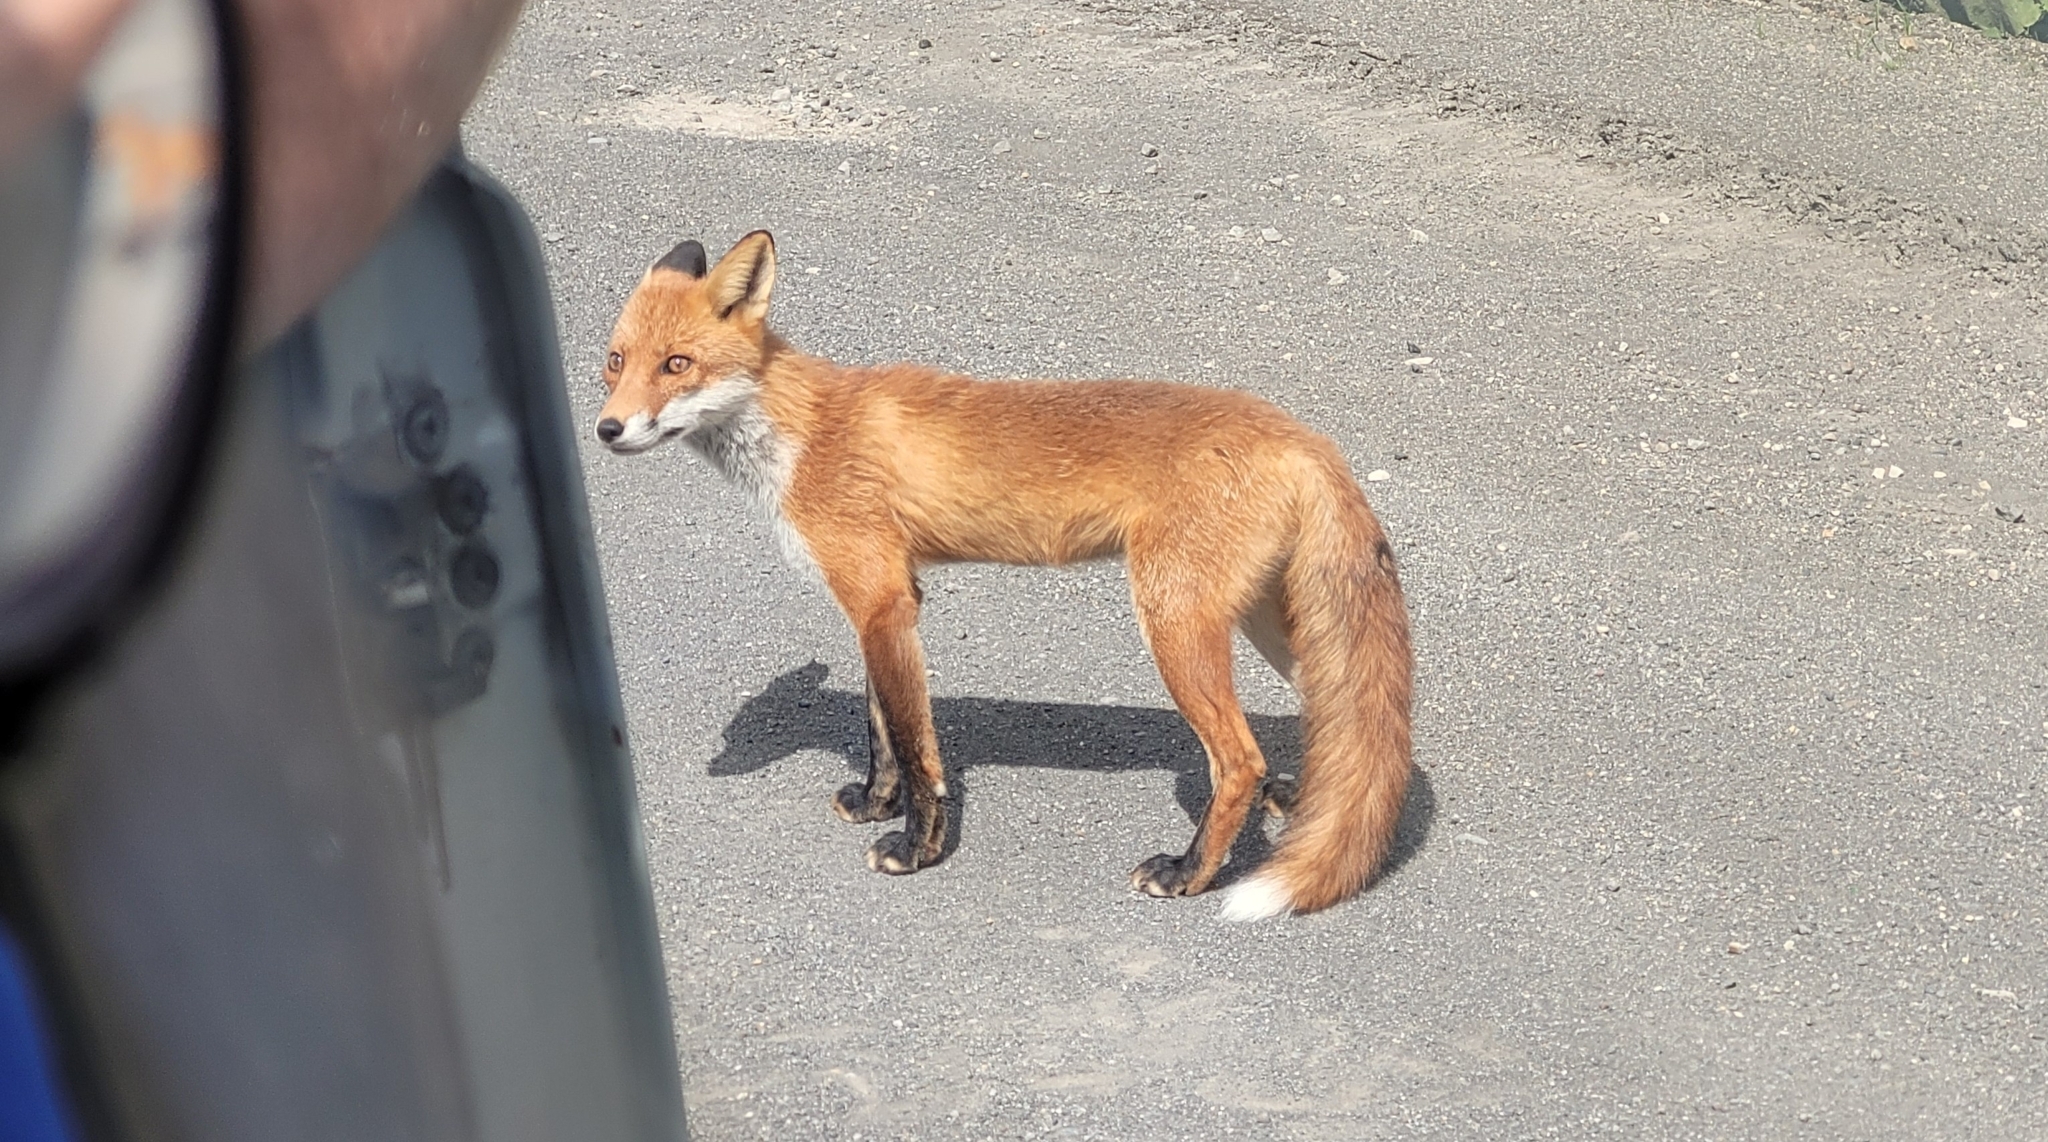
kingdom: Animalia
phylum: Chordata
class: Mammalia
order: Carnivora
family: Canidae
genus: Vulpes
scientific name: Vulpes vulpes
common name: Red fox
